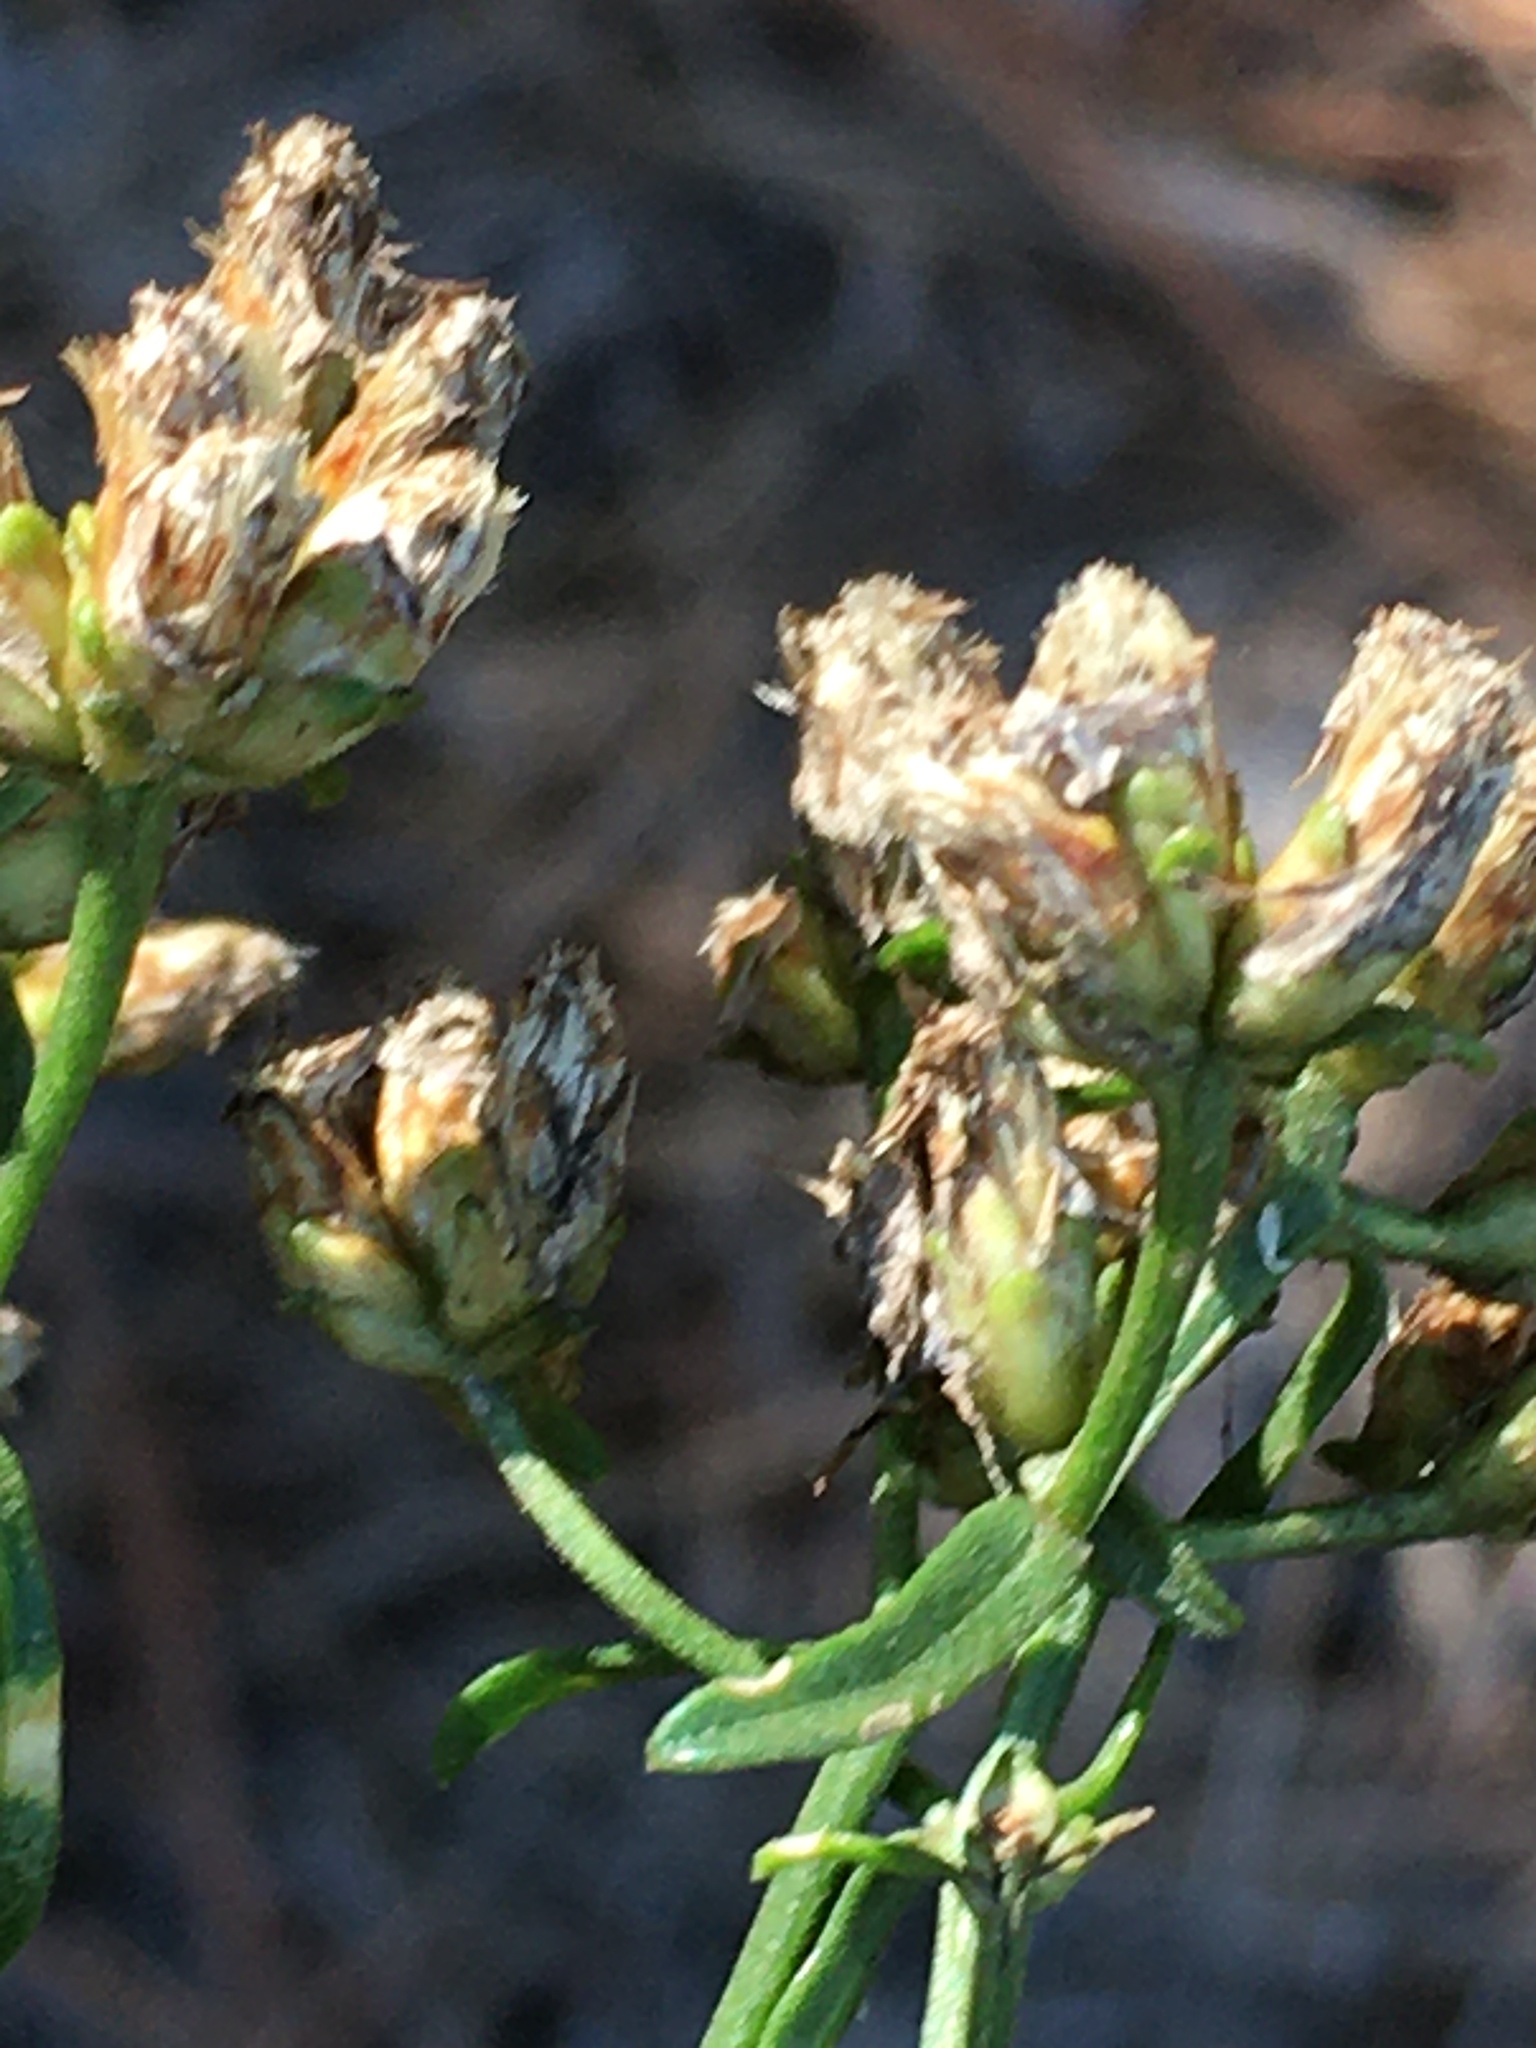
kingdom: Plantae
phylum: Tracheophyta
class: Magnoliopsida
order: Asterales
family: Asteraceae
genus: Sericocarpus
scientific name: Sericocarpus linifolius
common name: Narrow-leaf aster
